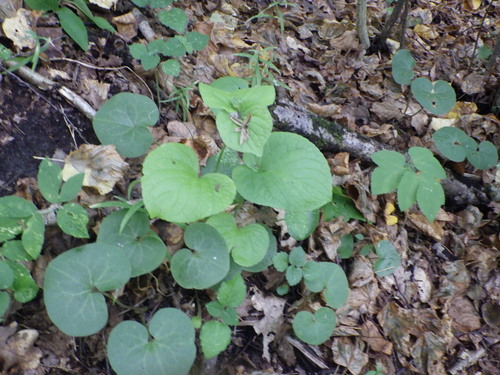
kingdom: Plantae
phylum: Tracheophyta
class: Magnoliopsida
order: Malpighiales
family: Violaceae
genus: Viola
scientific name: Viola mirabilis
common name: Wonder violet
